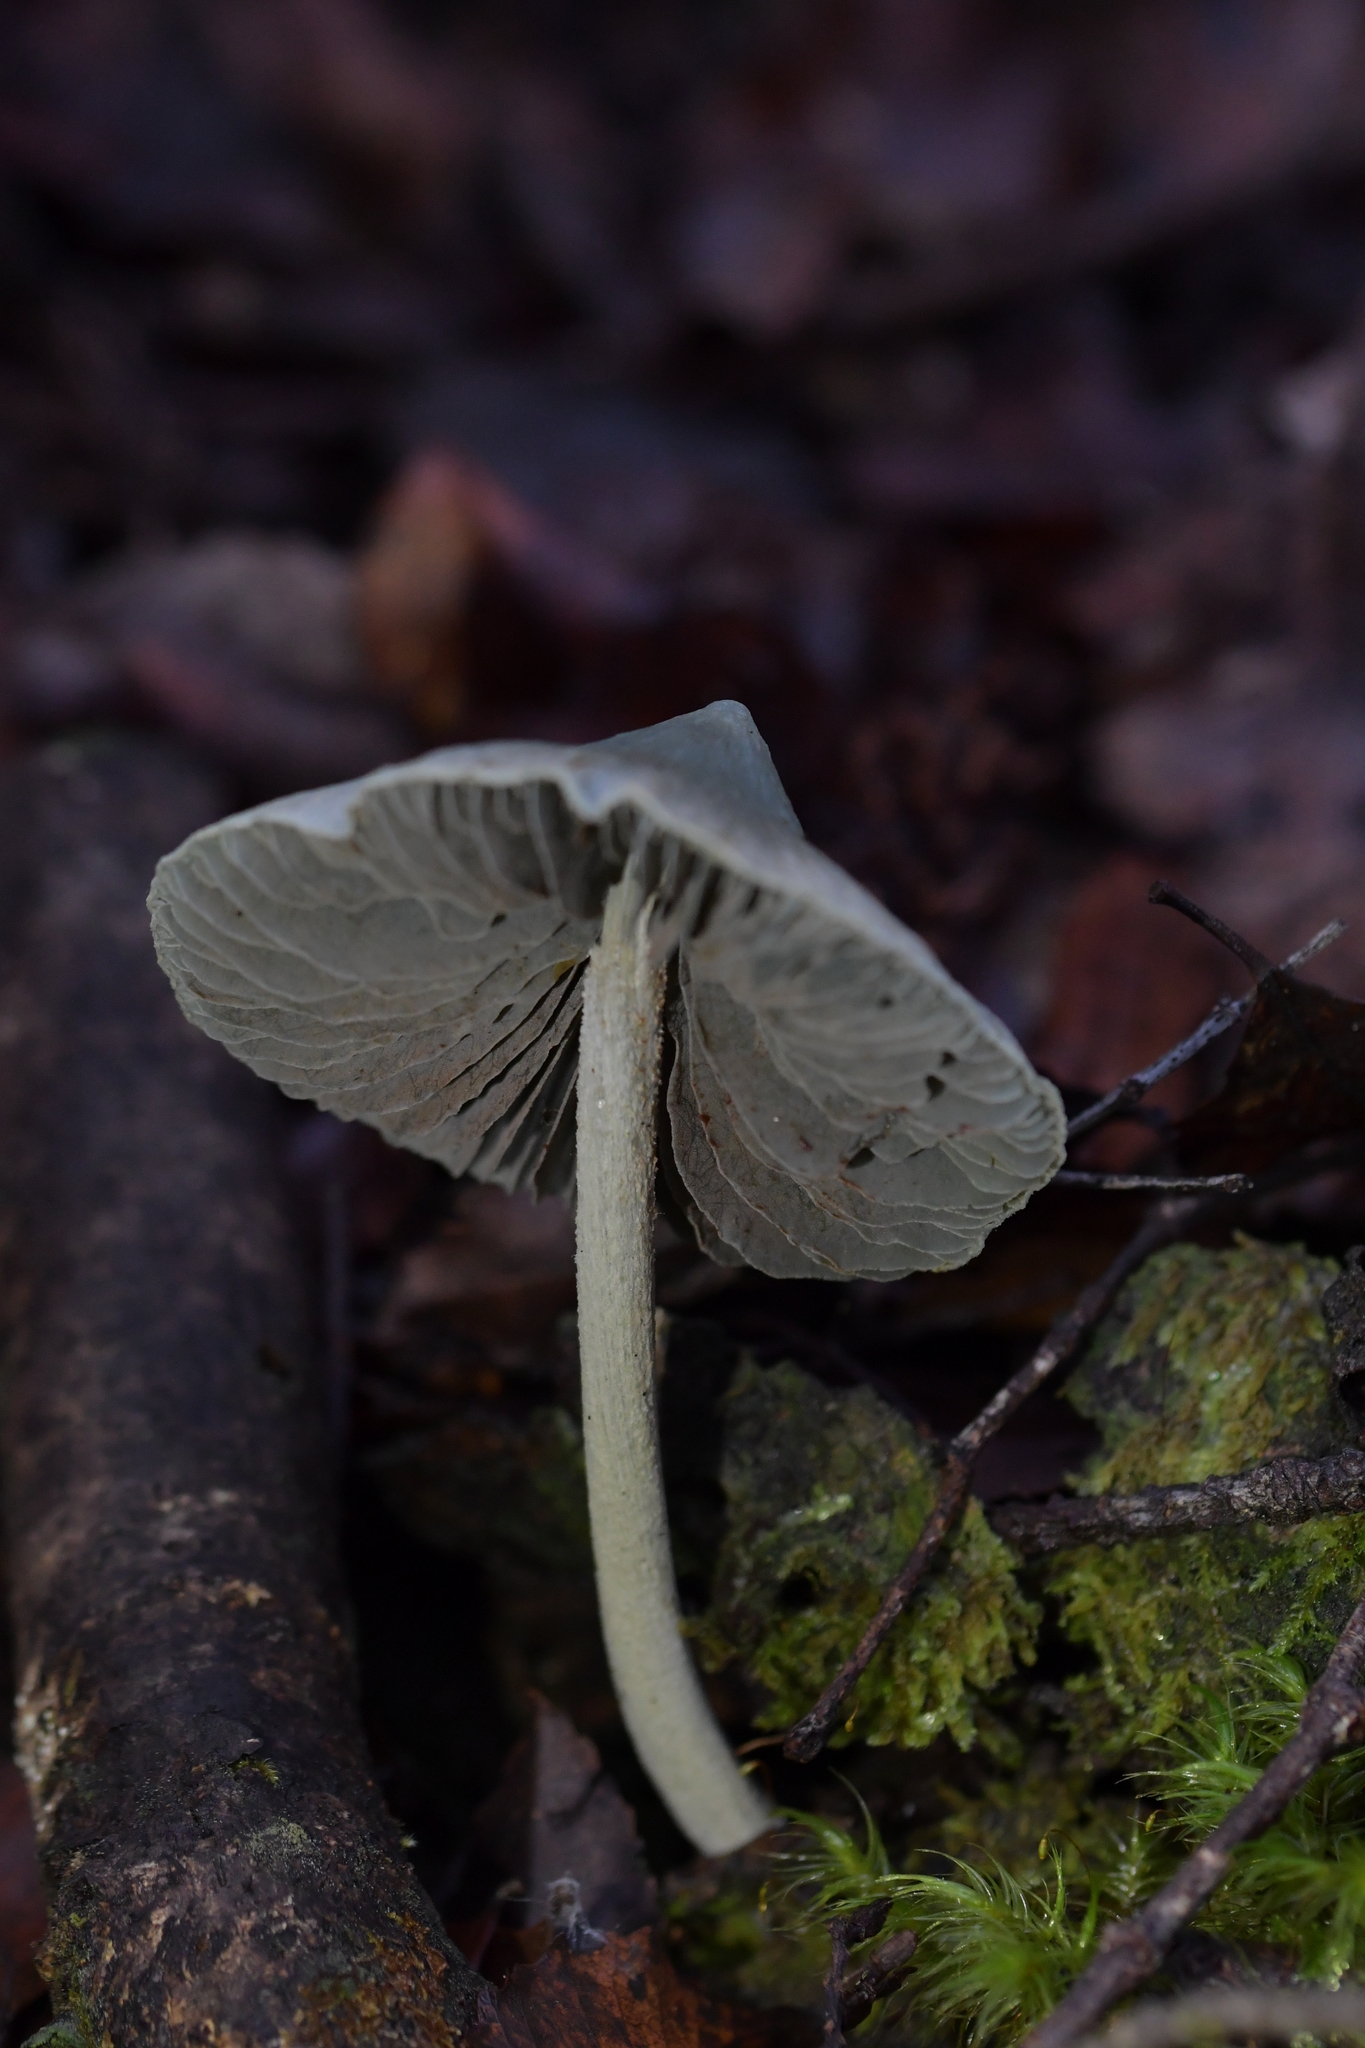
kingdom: Fungi
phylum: Basidiomycota
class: Agaricomycetes
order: Agaricales
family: Entolomataceae
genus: Entoloma
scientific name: Entoloma canoconicum
